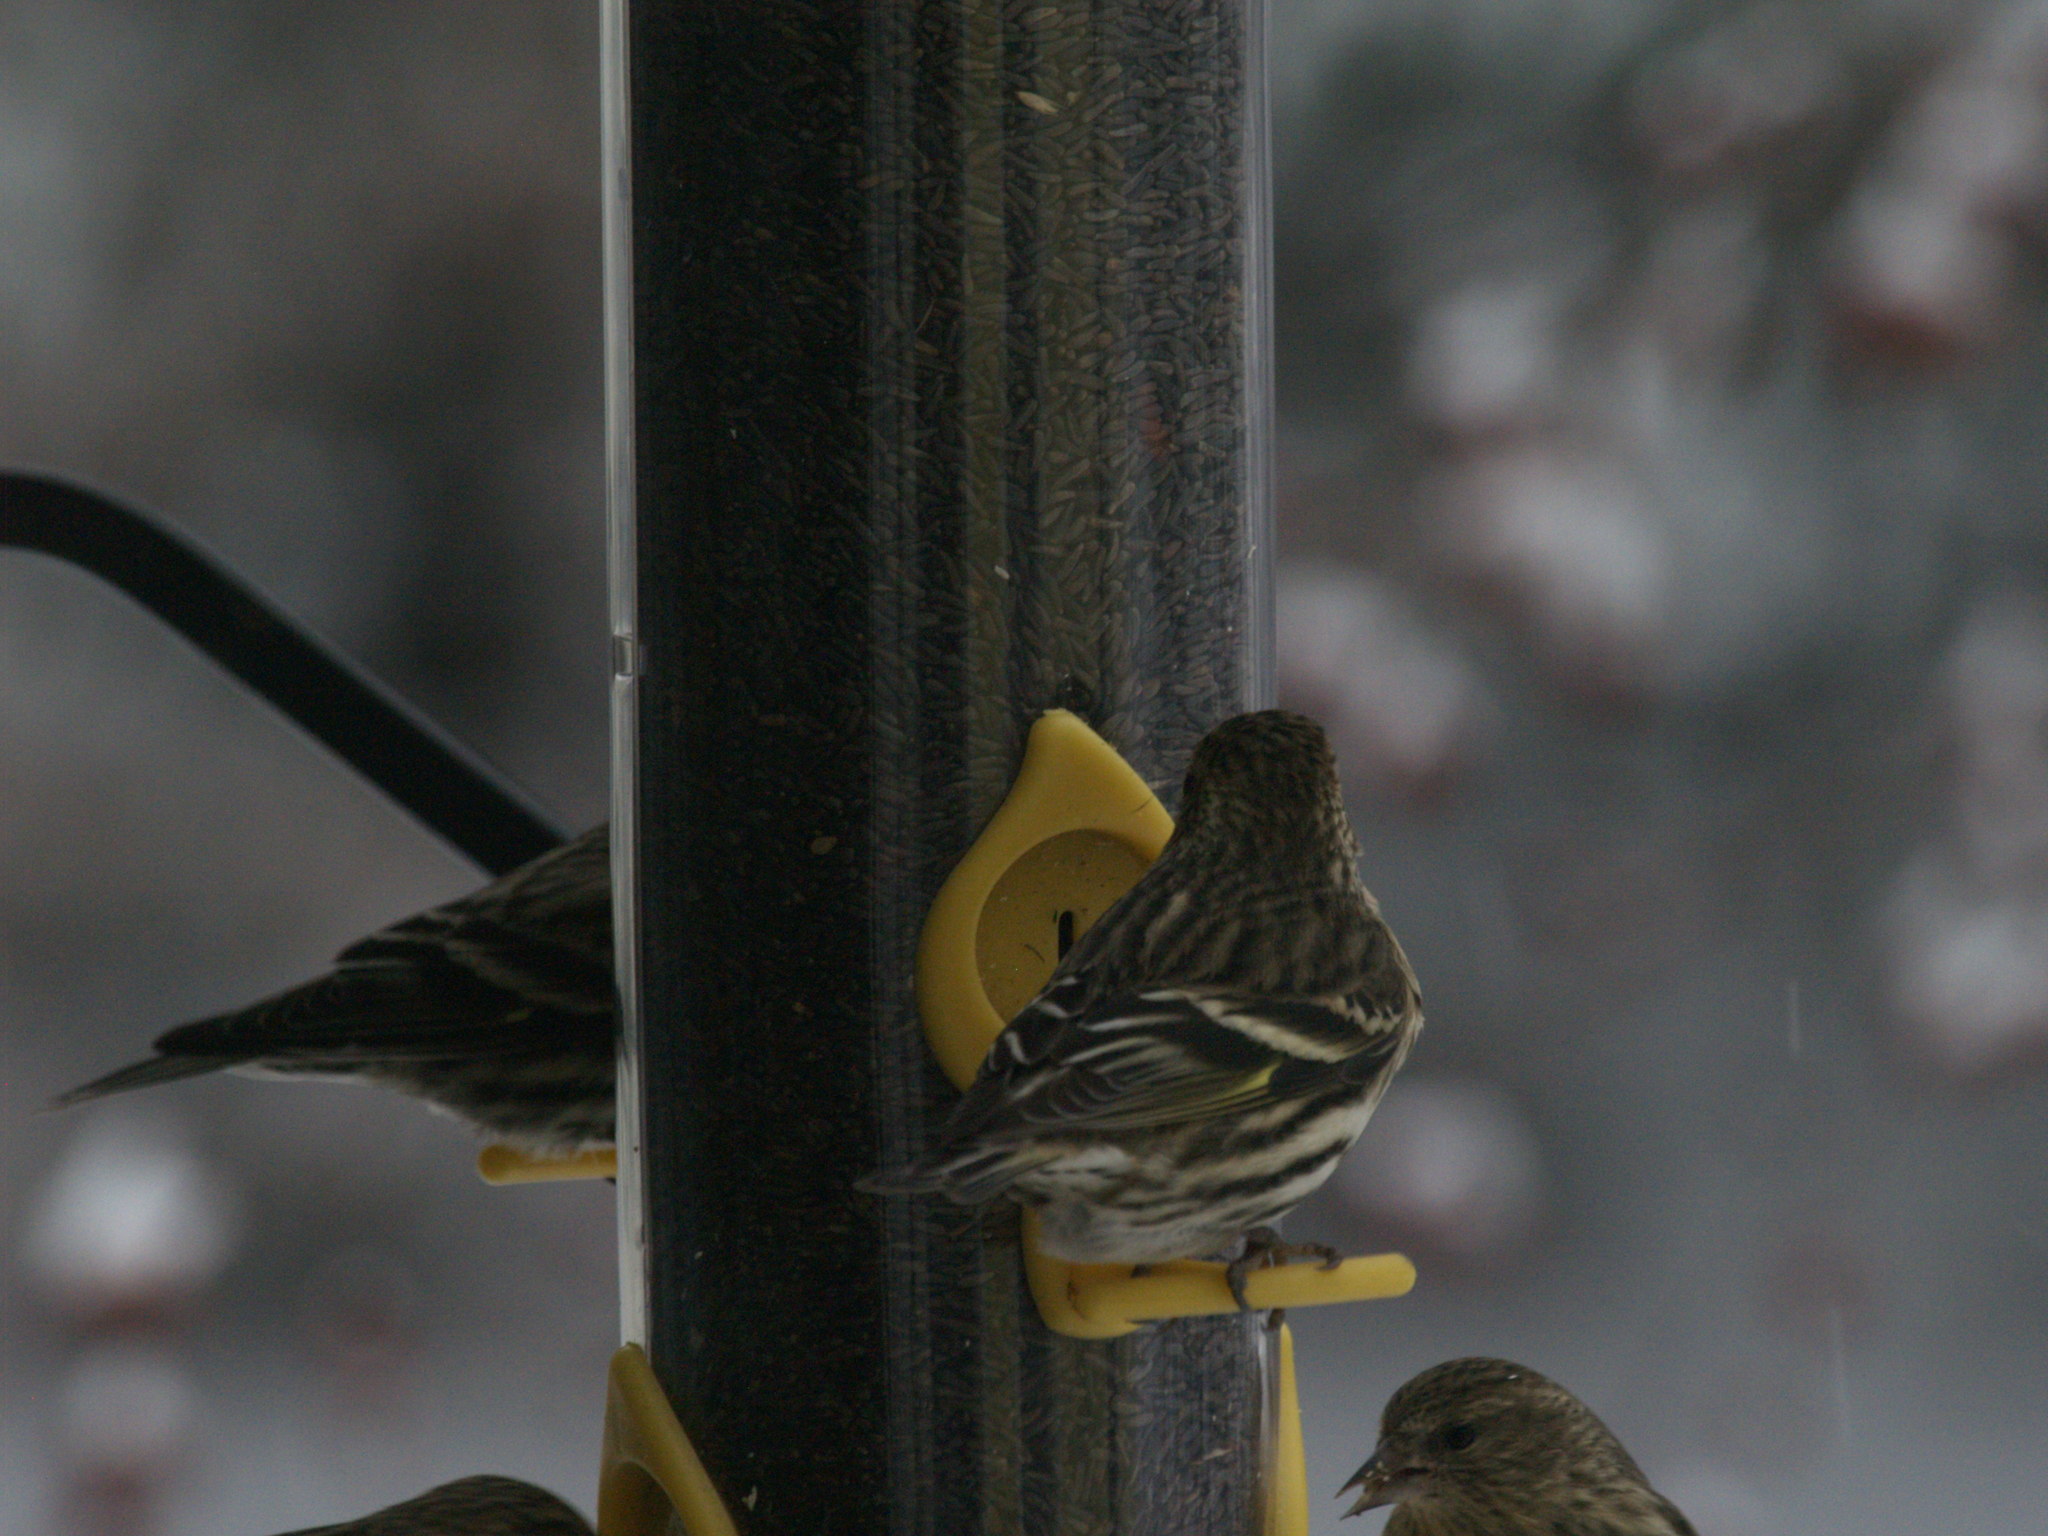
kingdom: Animalia
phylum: Chordata
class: Aves
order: Passeriformes
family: Fringillidae
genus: Spinus
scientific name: Spinus pinus
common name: Pine siskin
